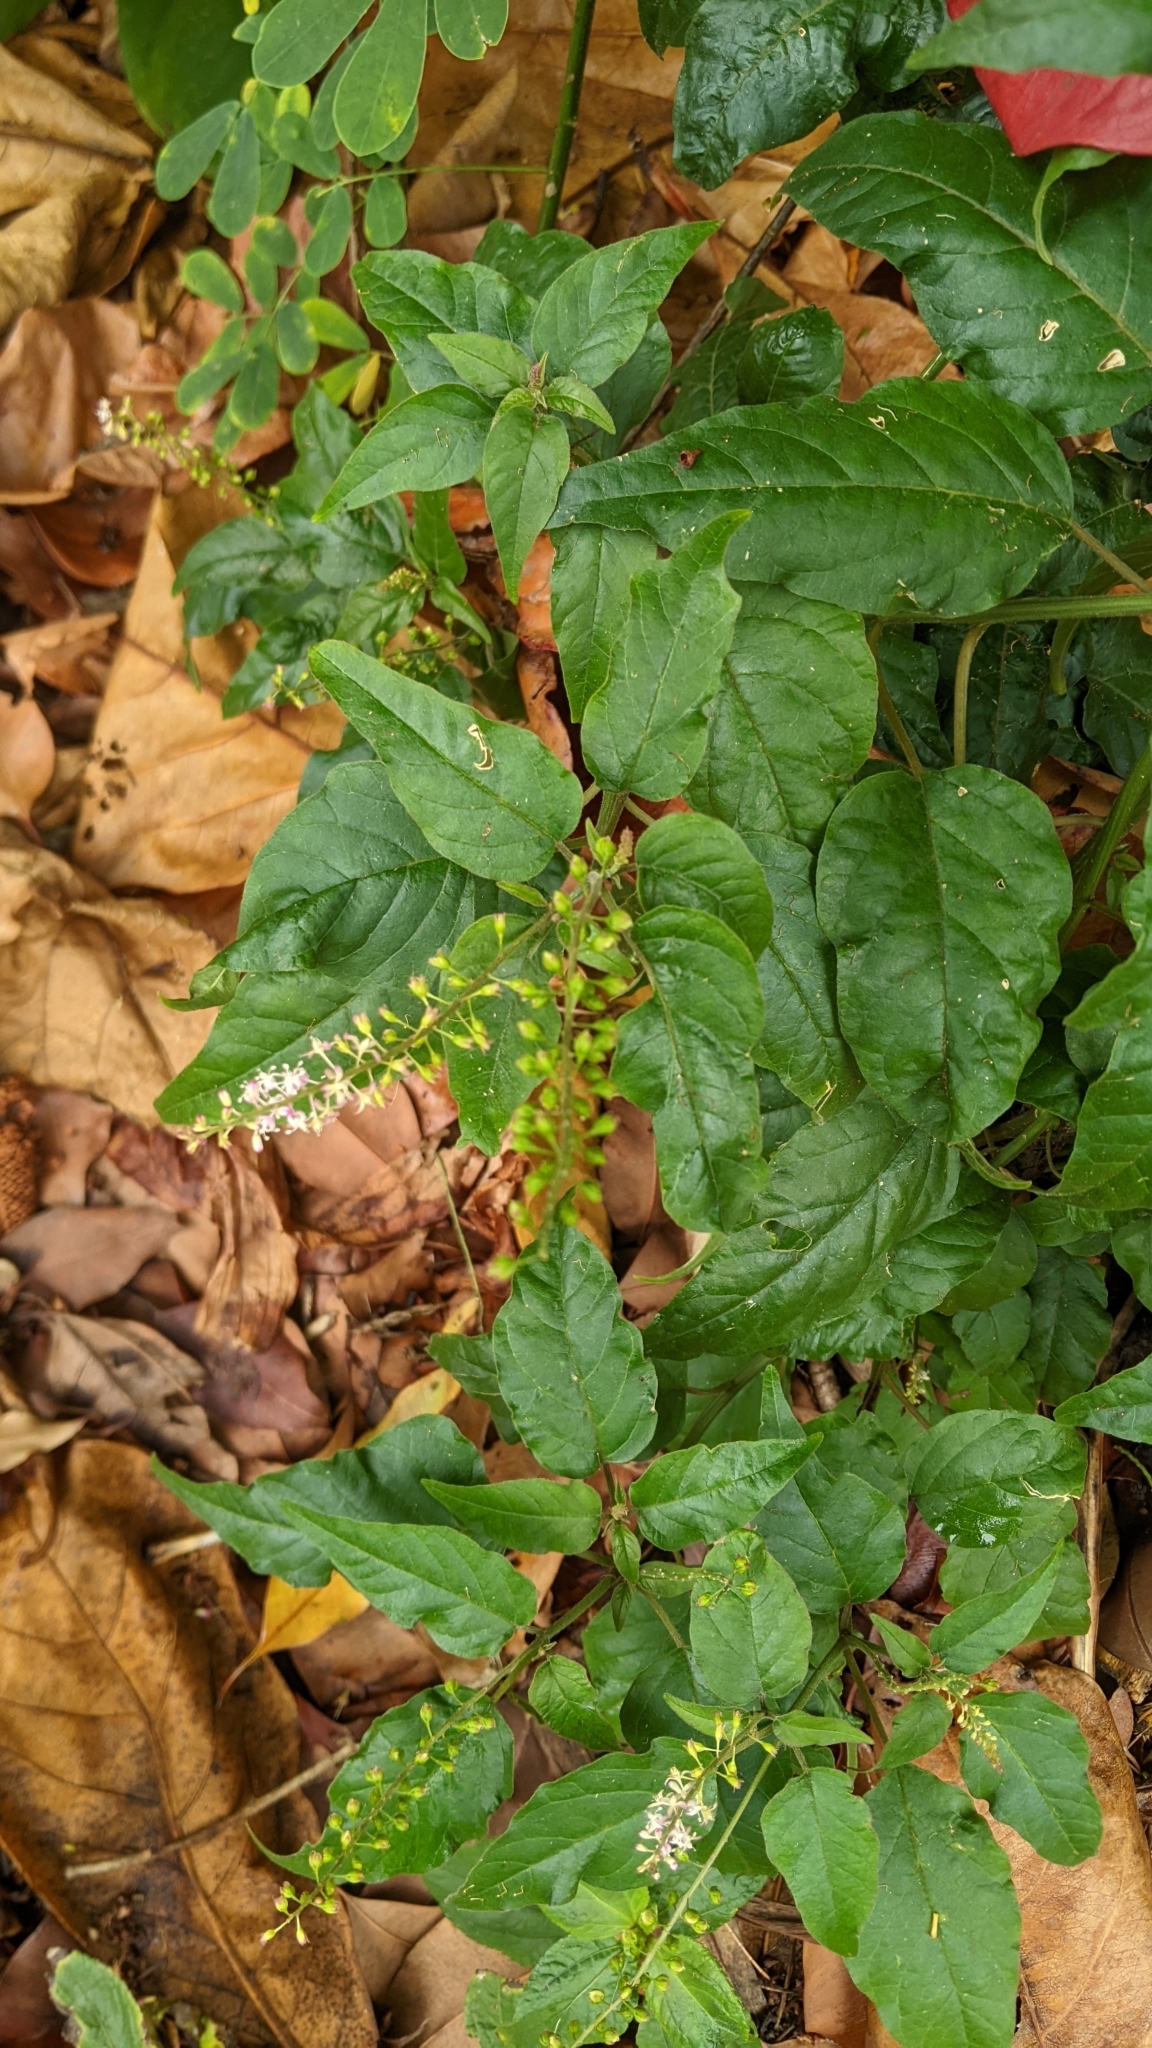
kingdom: Plantae
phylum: Tracheophyta
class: Magnoliopsida
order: Caryophyllales
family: Phytolaccaceae
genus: Rivina
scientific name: Rivina humilis
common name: Rougeplant
